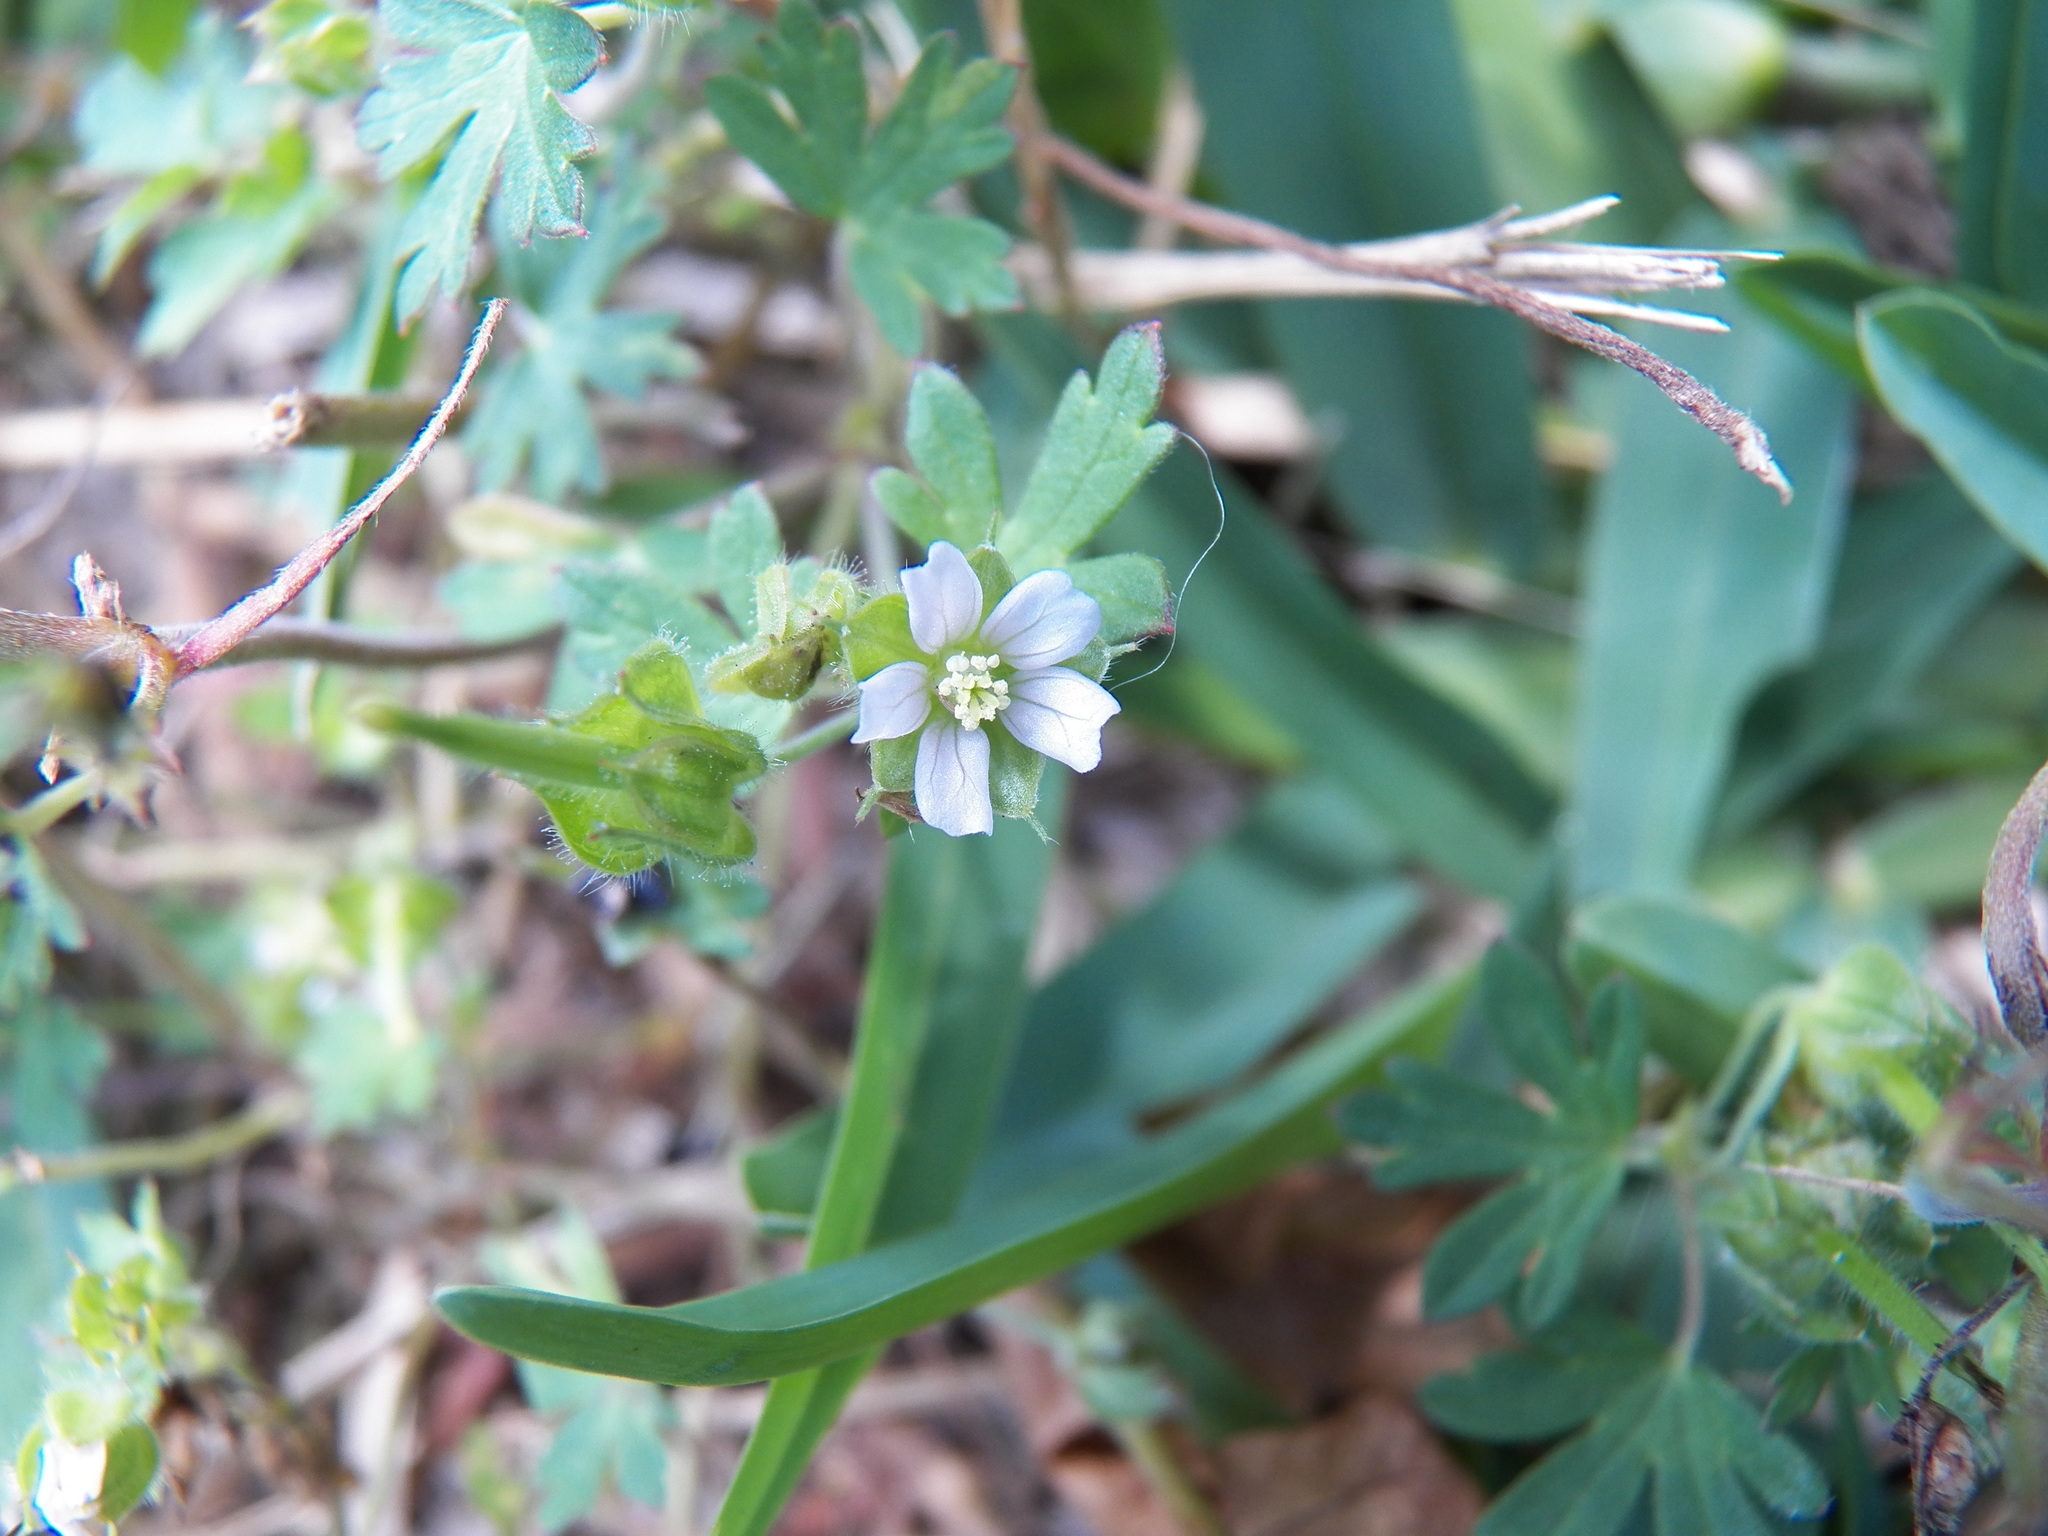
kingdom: Plantae
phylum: Tracheophyta
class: Magnoliopsida
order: Geraniales
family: Geraniaceae
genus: Geranium
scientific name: Geranium carolinianum
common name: Carolina crane's-bill
